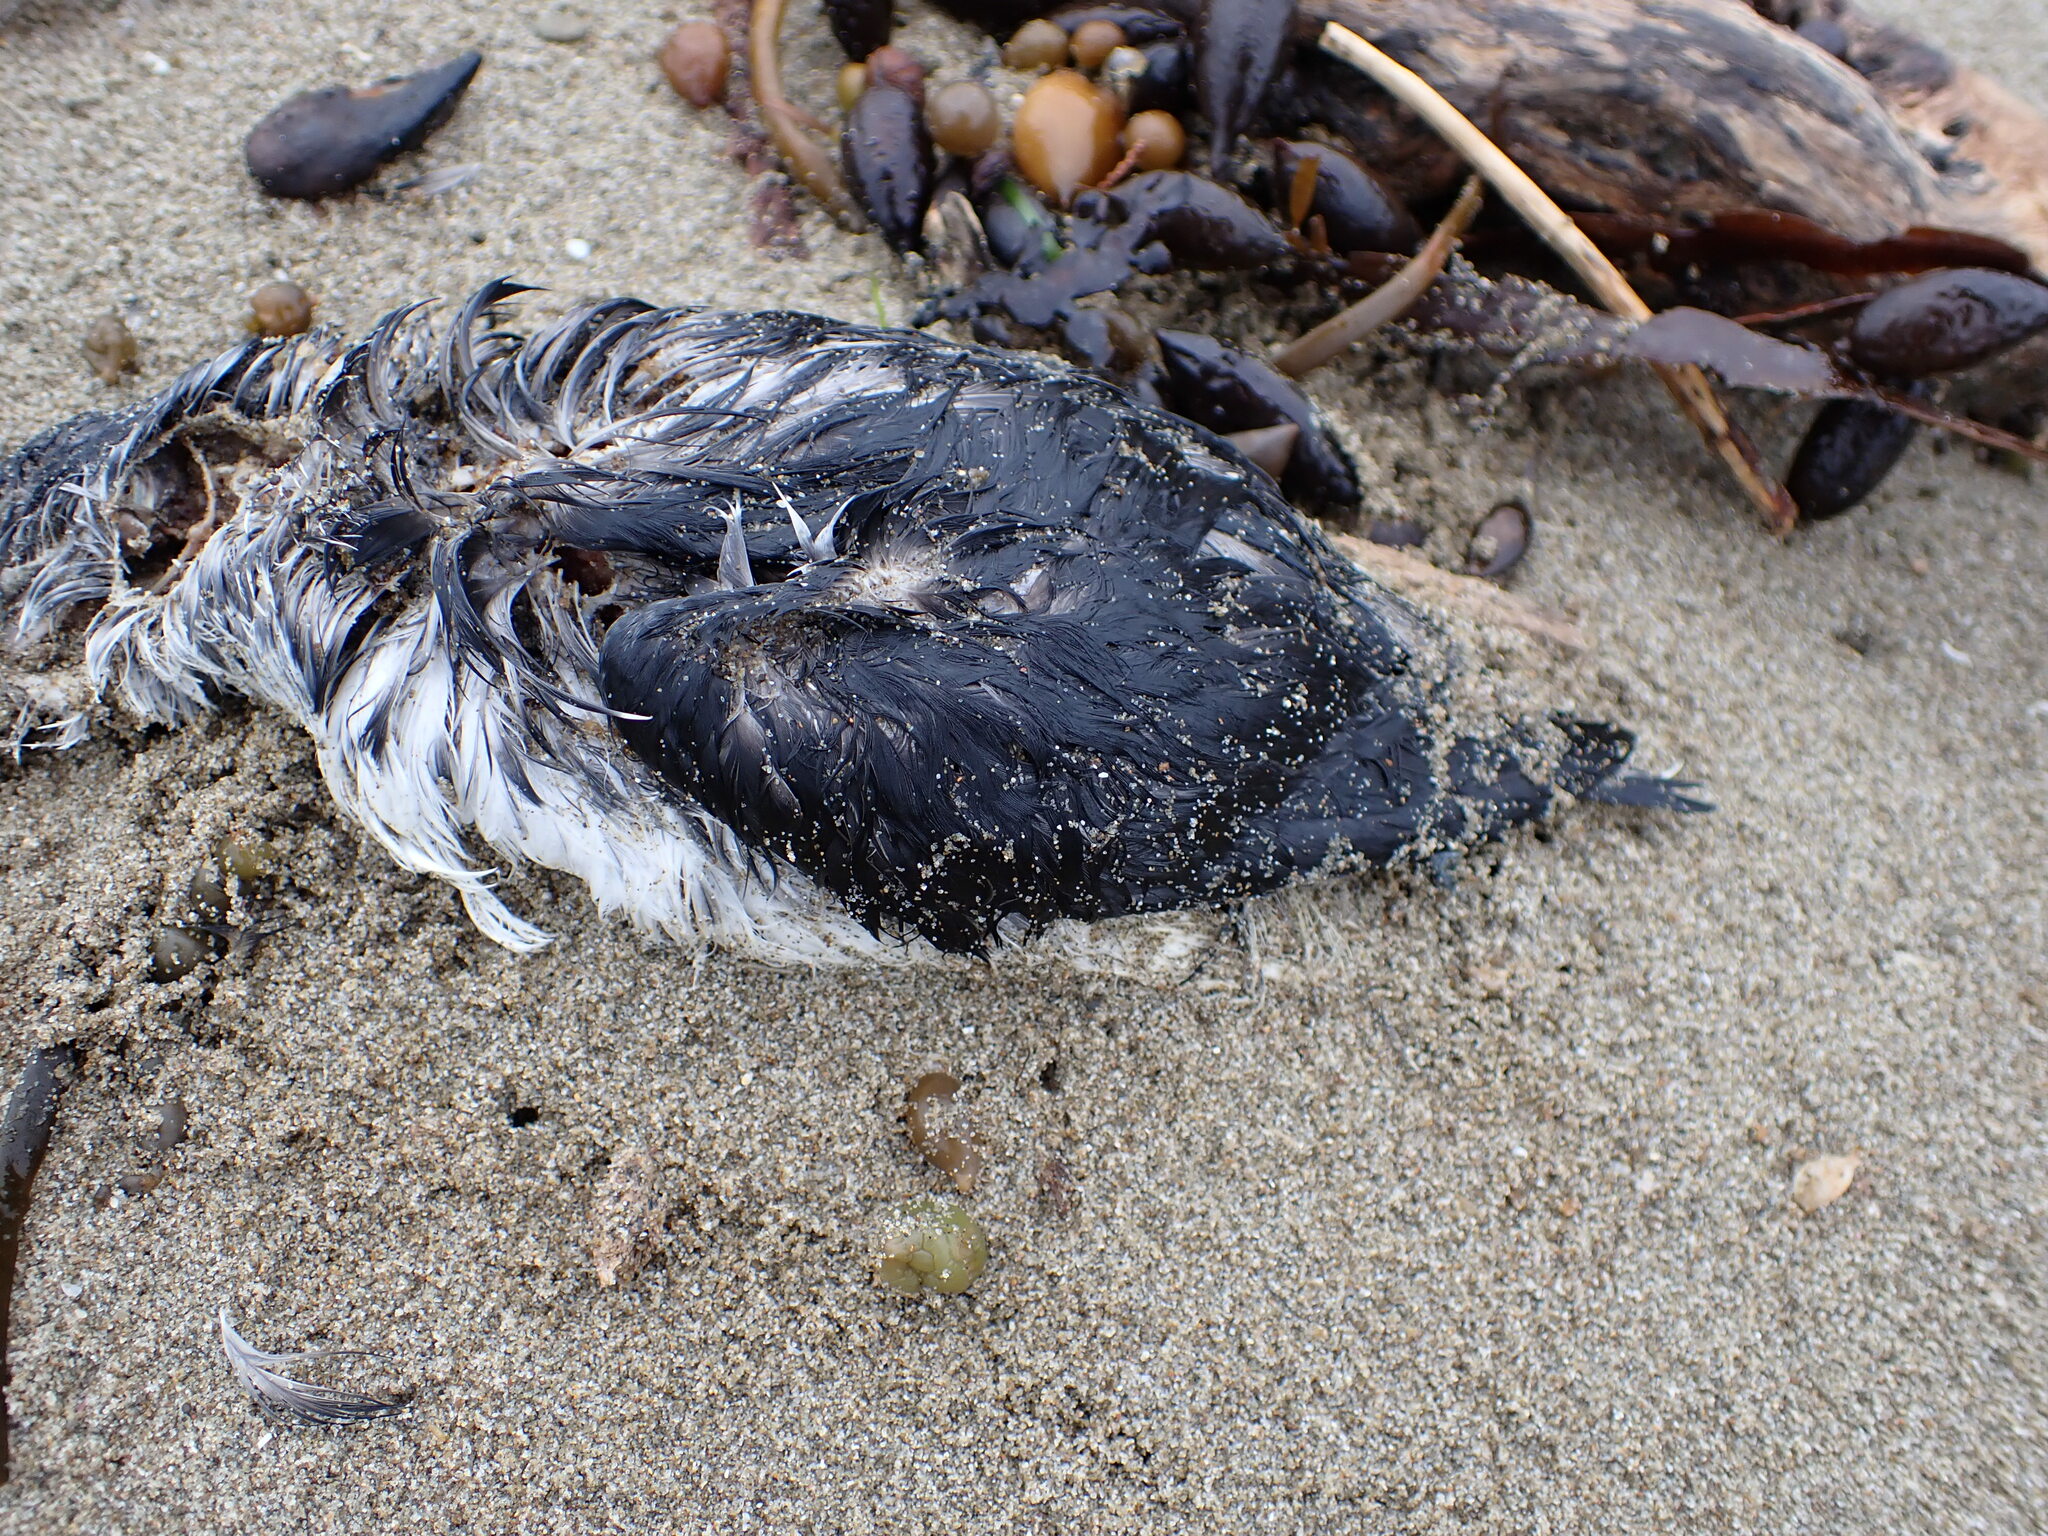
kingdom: Animalia
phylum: Chordata
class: Aves
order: Procellariiformes
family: Pelecanoididae
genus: Pelecanoides
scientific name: Pelecanoides urinatrix
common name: Common diving-petrel
